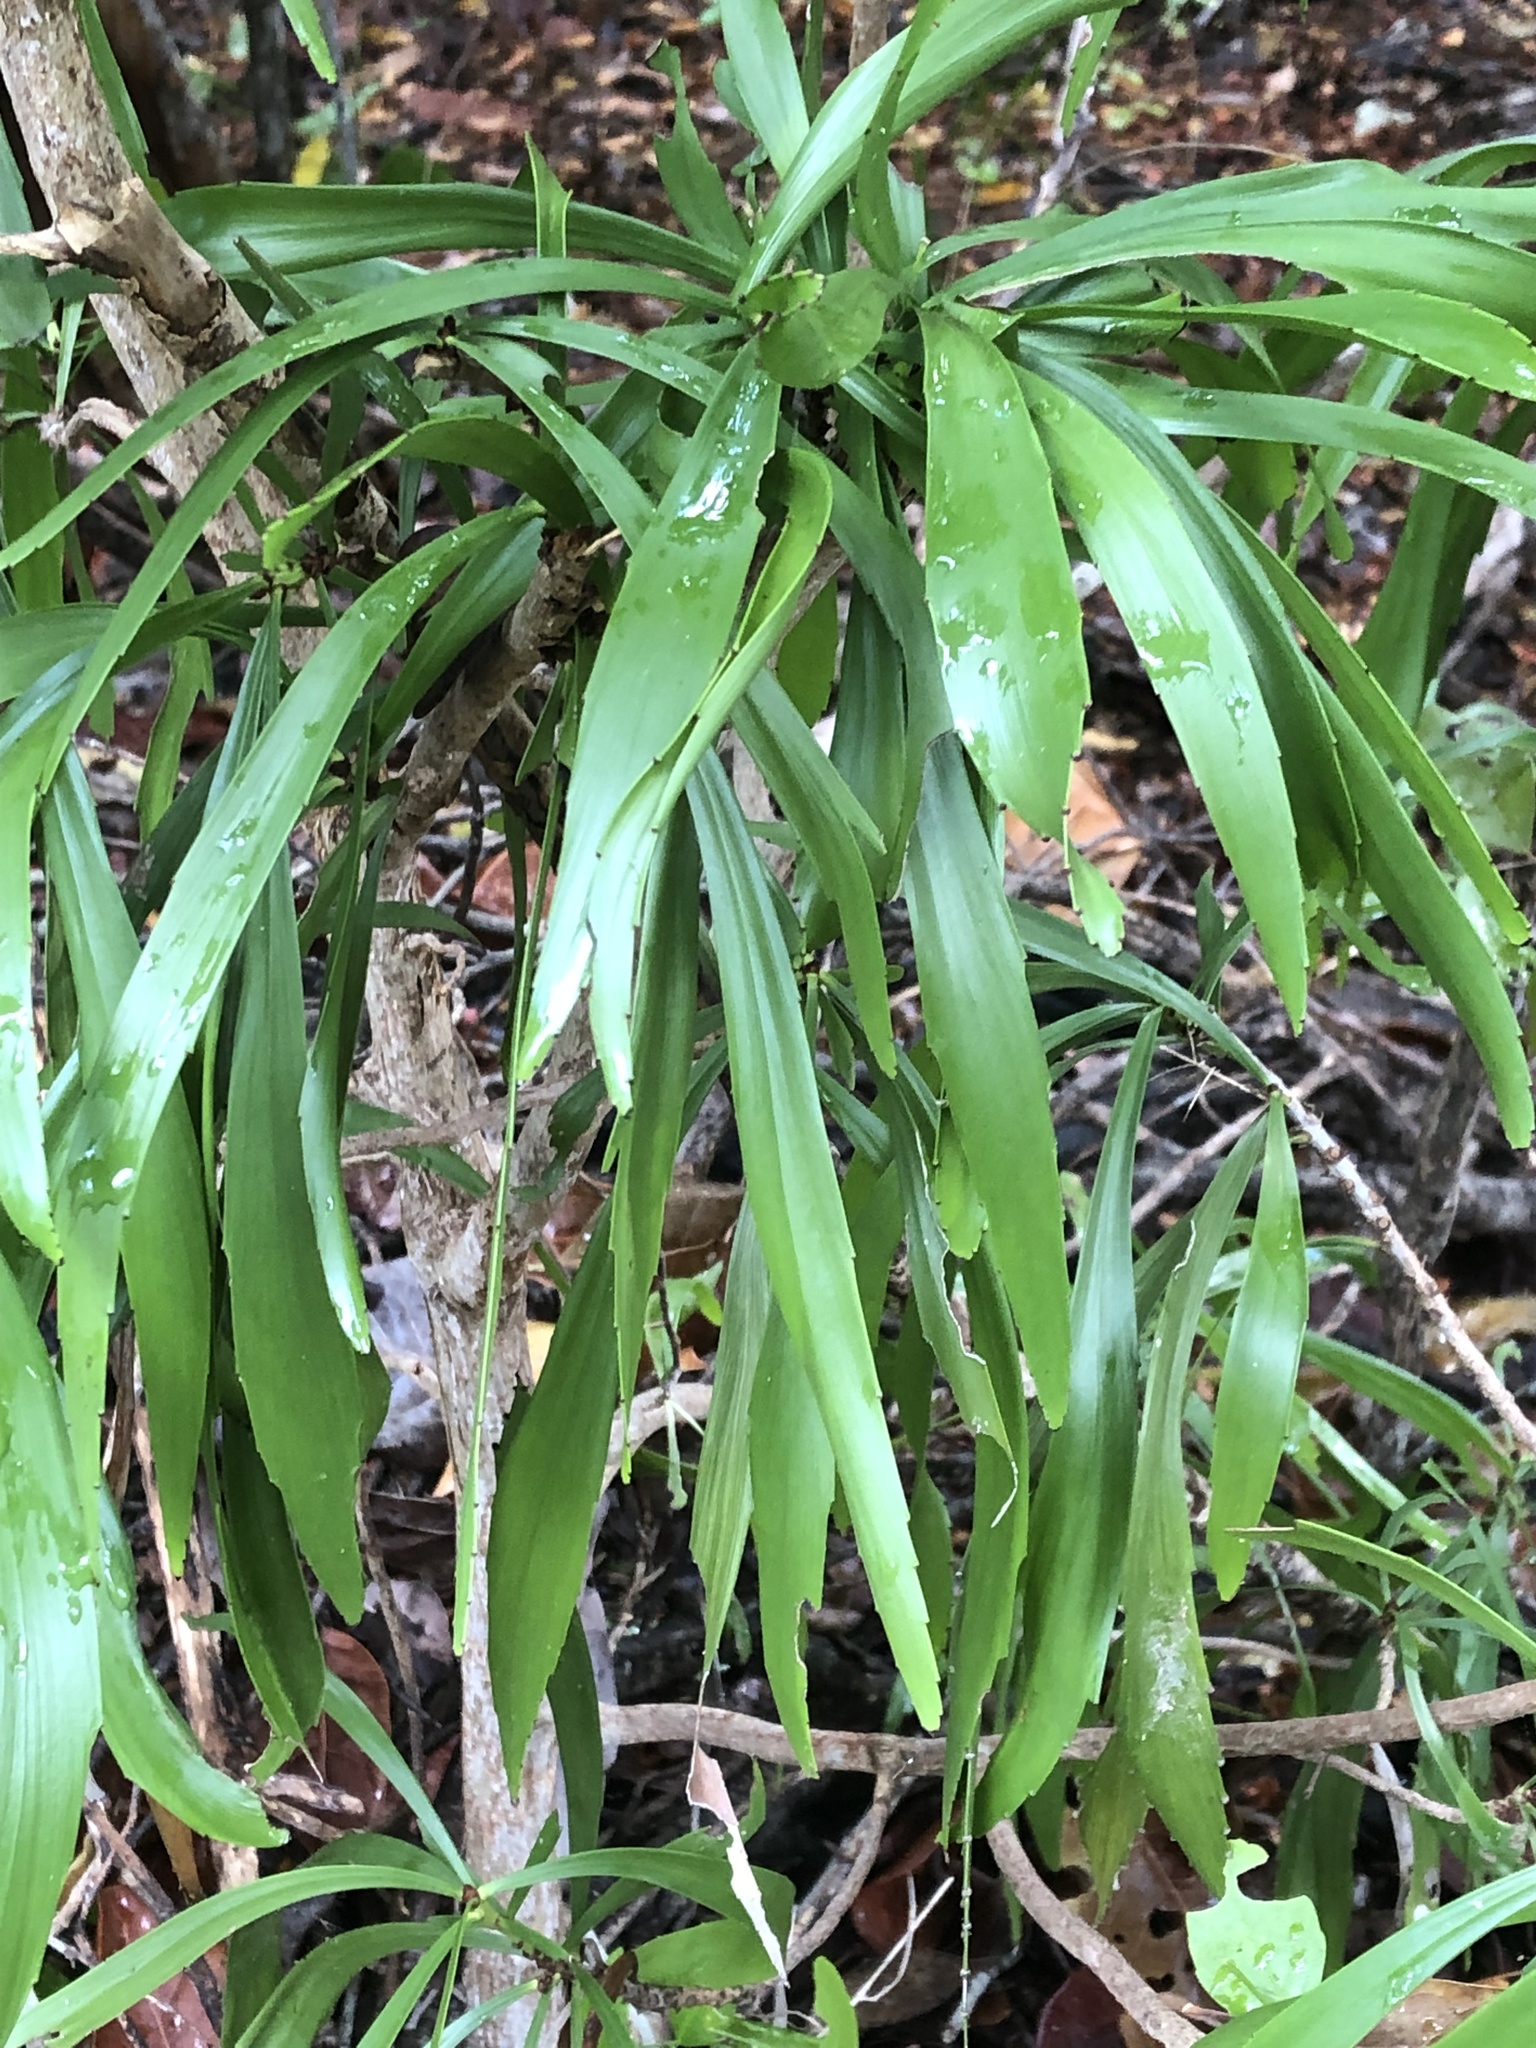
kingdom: Plantae
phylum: Tracheophyta
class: Magnoliopsida
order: Malpighiales
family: Phyllanthaceae
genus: Phyllanthus
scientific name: Phyllanthus epiphyllanthus
